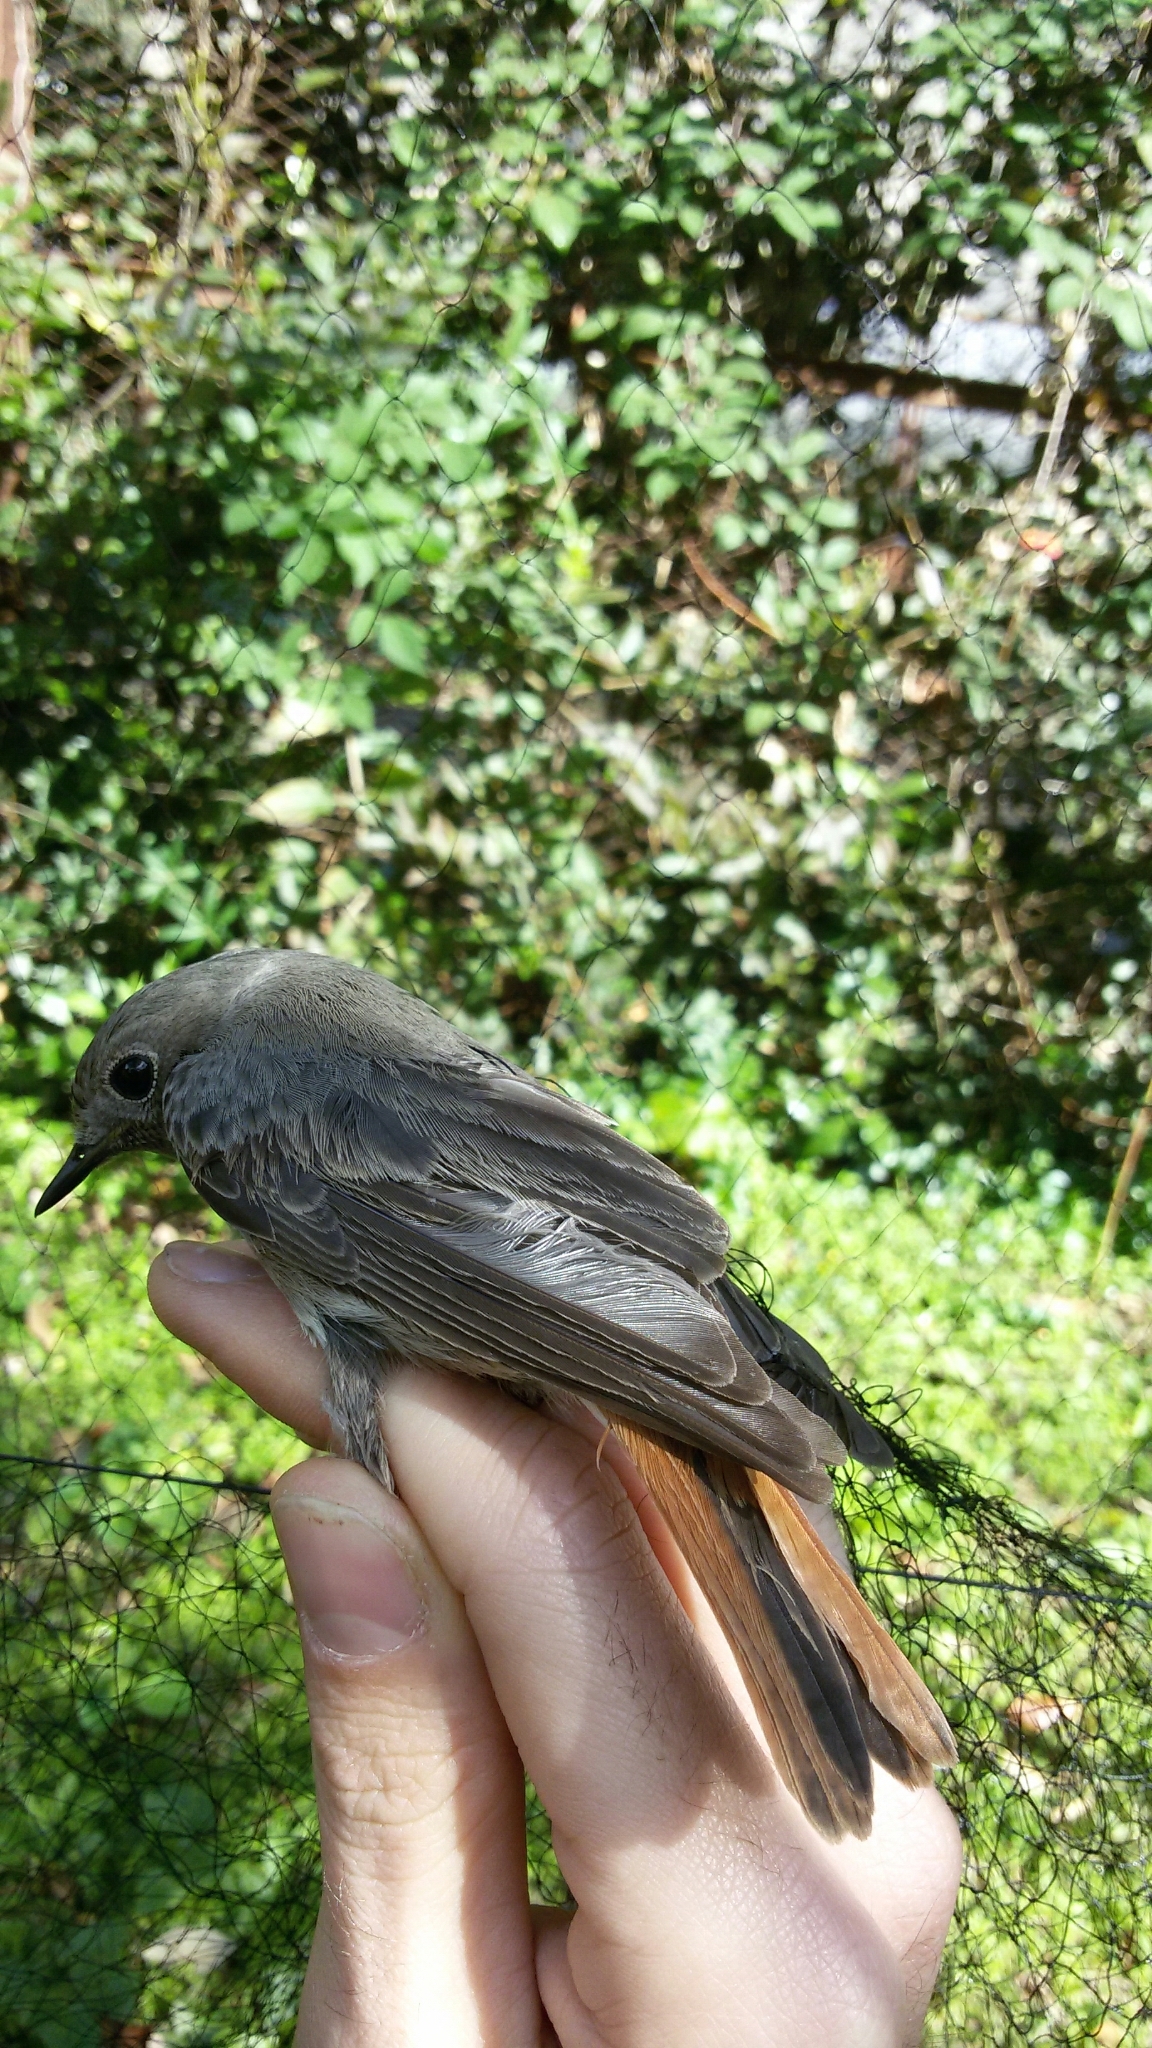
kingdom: Animalia
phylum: Chordata
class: Aves
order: Passeriformes
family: Muscicapidae
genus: Phoenicurus
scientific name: Phoenicurus ochruros
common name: Black redstart
